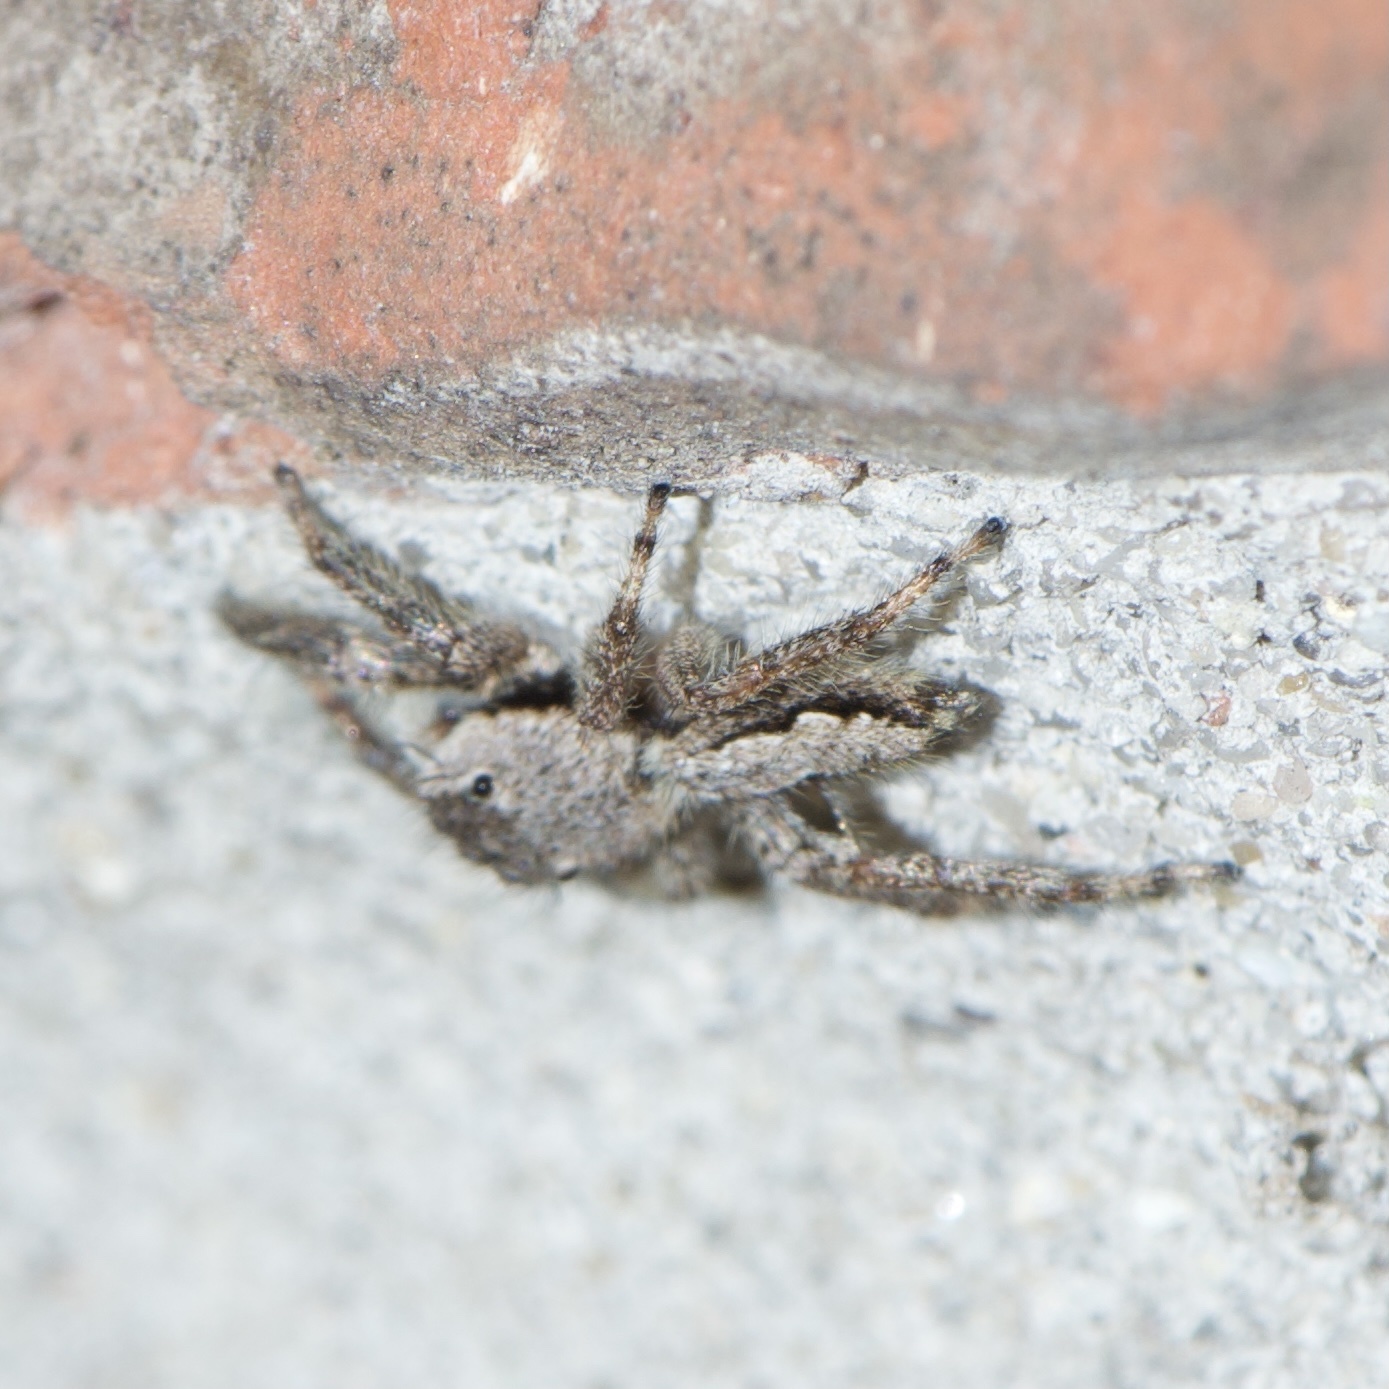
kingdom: Animalia
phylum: Arthropoda
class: Arachnida
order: Araneae
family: Salticidae
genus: Platycryptus
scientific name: Platycryptus undatus
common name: Tan jumping spider
